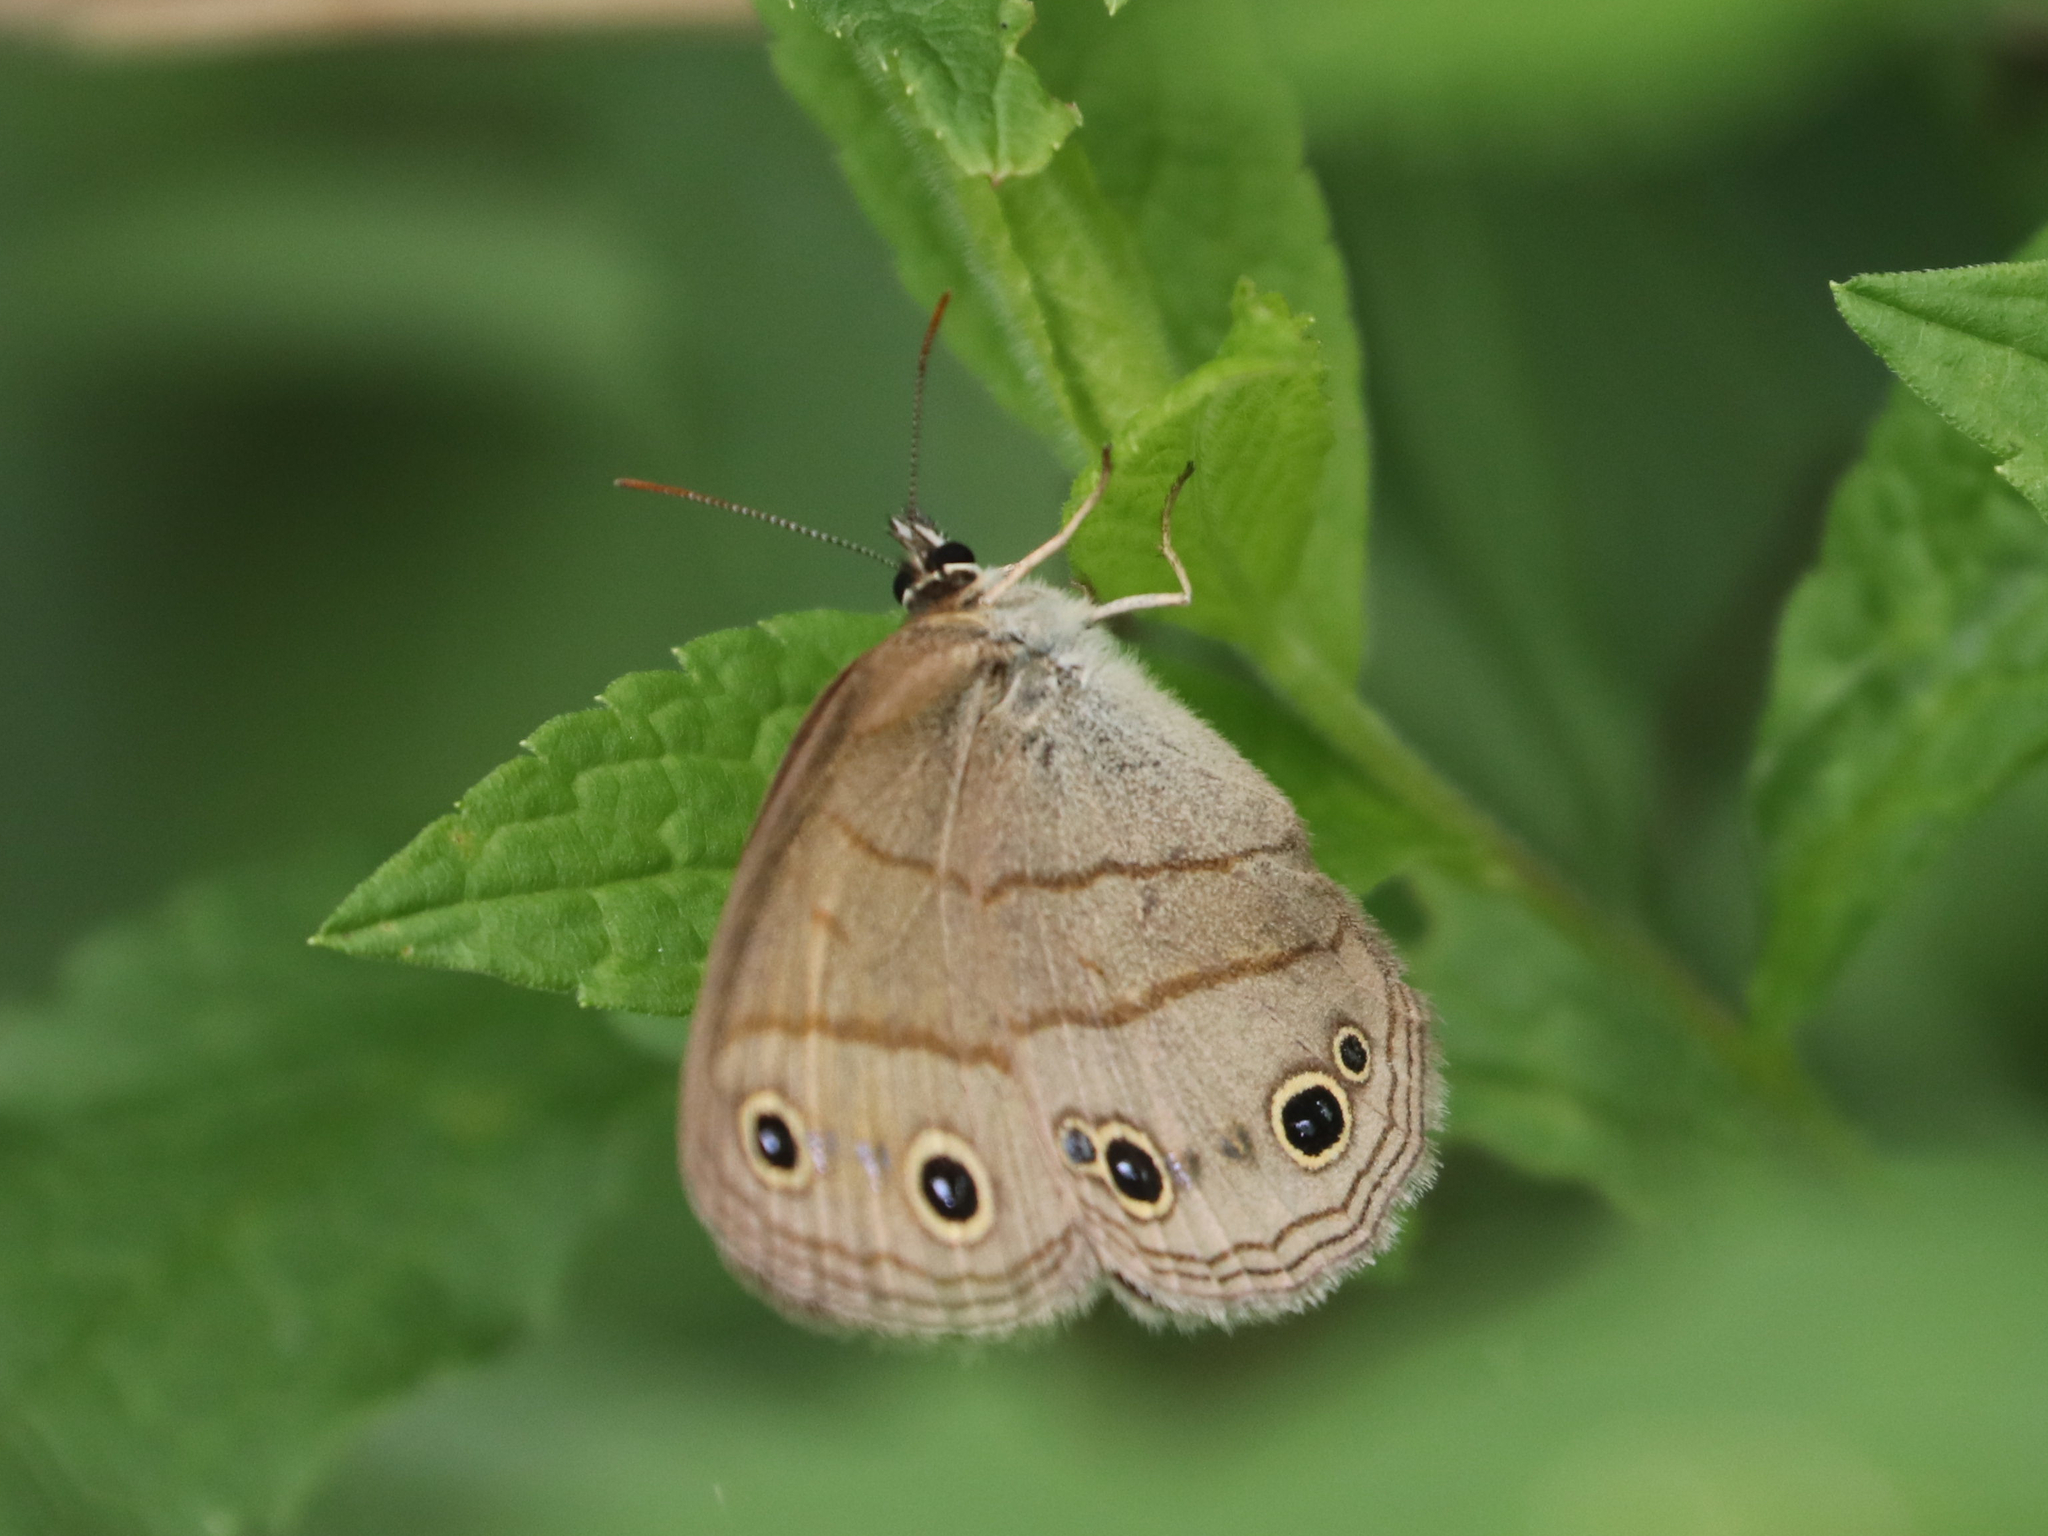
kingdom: Animalia
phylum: Arthropoda
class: Insecta
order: Lepidoptera
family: Nymphalidae
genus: Euptychia
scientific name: Euptychia cymela
